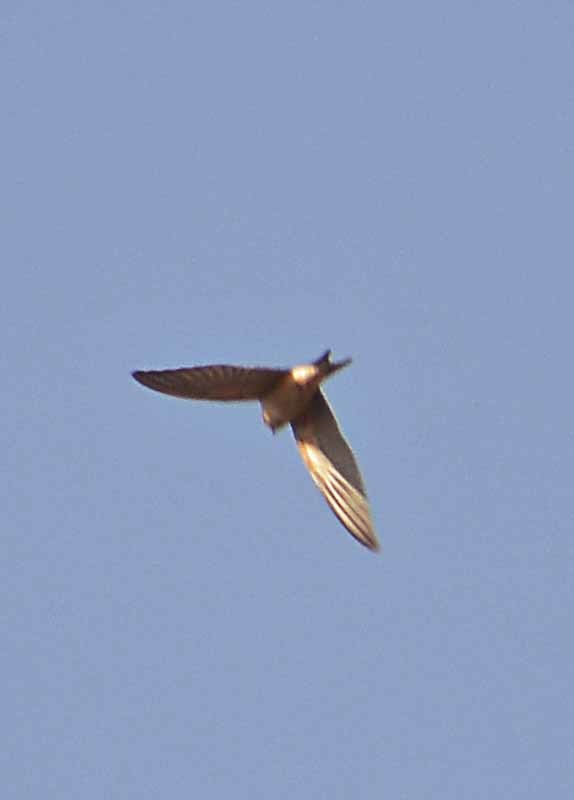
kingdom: Animalia
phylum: Chordata
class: Aves
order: Passeriformes
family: Hirundinidae
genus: Hirundo
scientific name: Hirundo rustica
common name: Barn swallow
